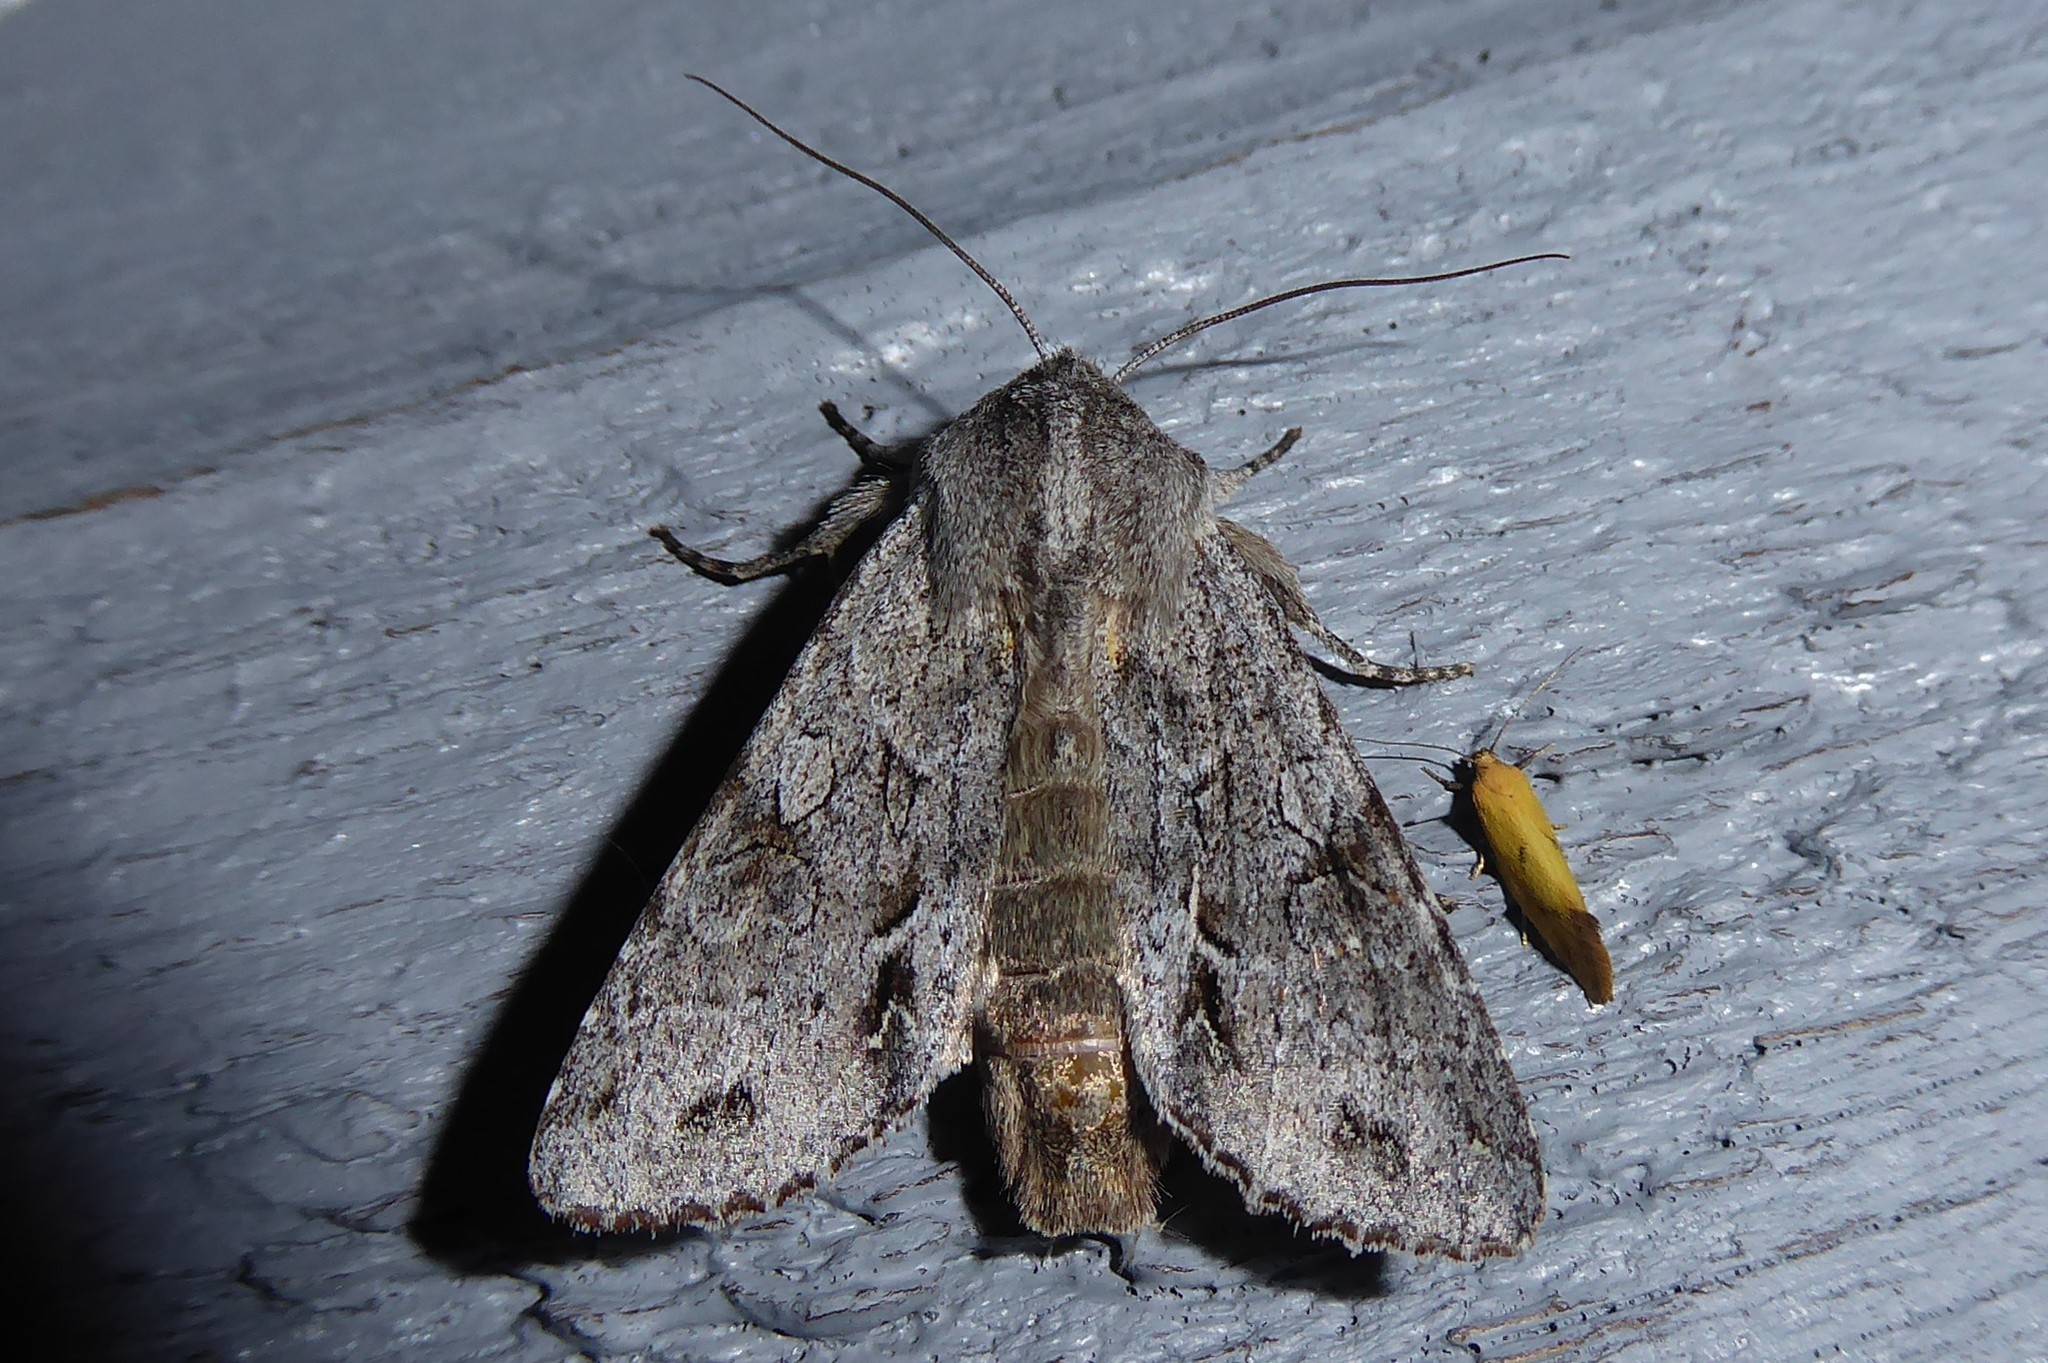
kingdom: Animalia
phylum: Arthropoda
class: Insecta
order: Lepidoptera
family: Noctuidae
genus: Ichneutica
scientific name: Ichneutica
